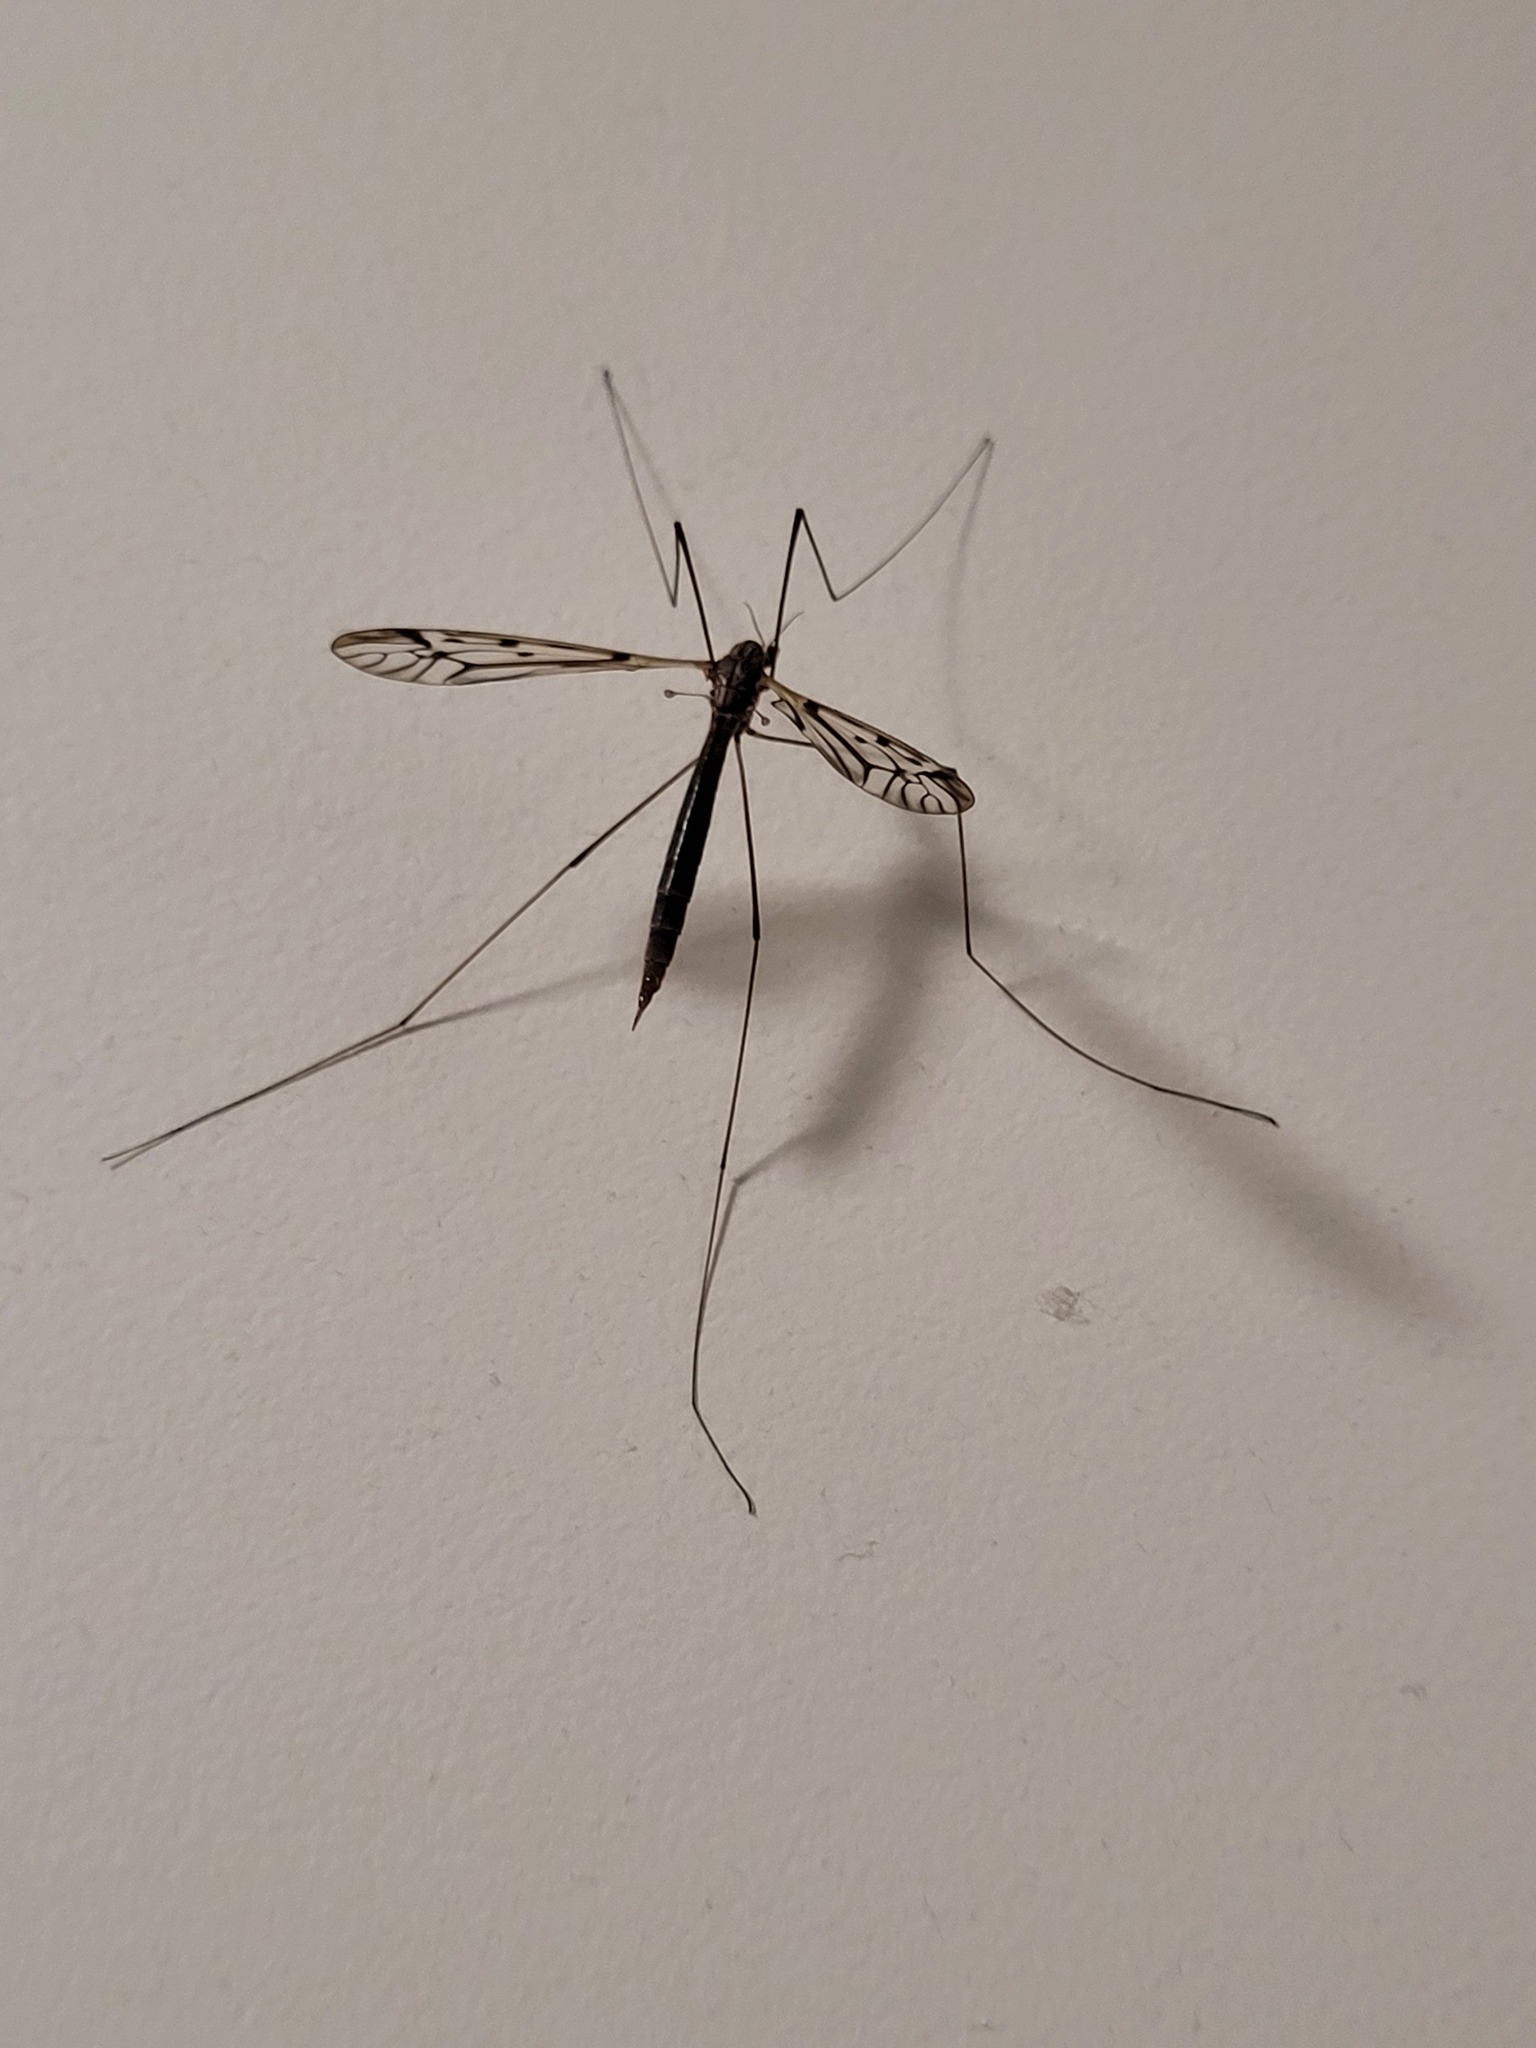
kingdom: Animalia
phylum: Arthropoda
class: Insecta
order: Diptera
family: Tipulidae
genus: Zelandotipula
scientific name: Zelandotipula novarae
